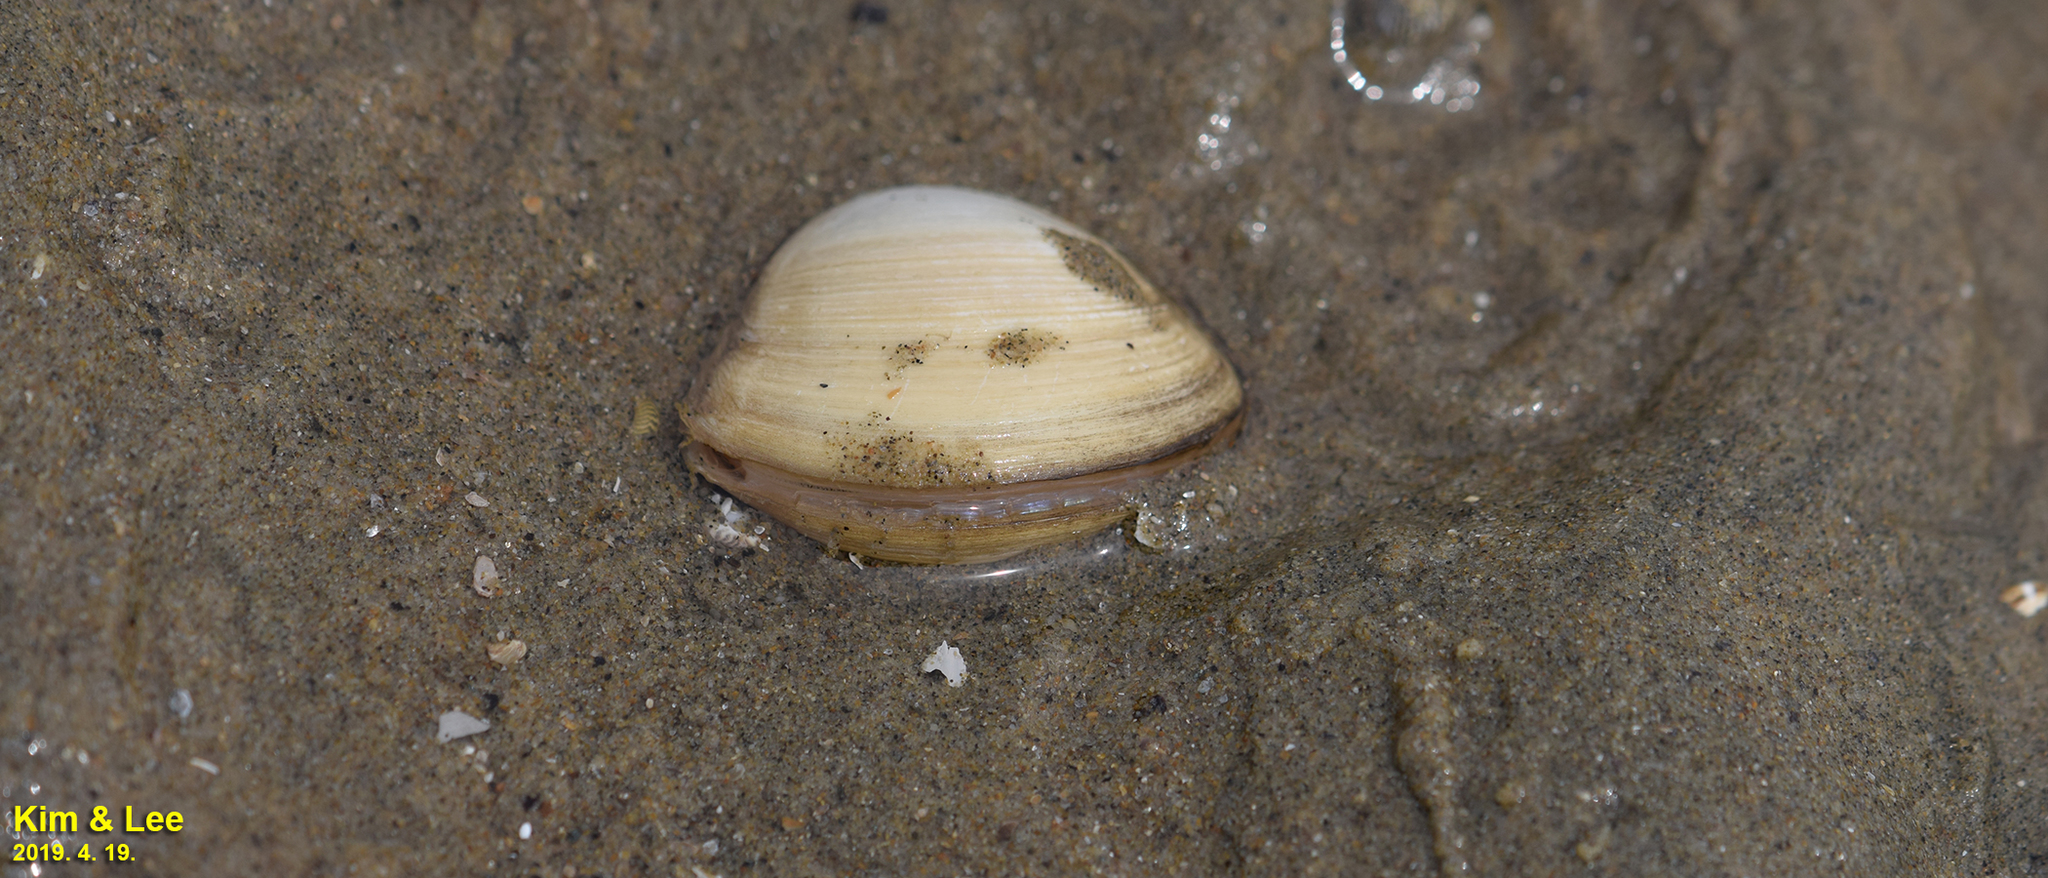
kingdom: Animalia
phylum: Mollusca
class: Bivalvia
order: Venerida
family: Mactridae
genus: Mactra
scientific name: Mactra quadrangularis
